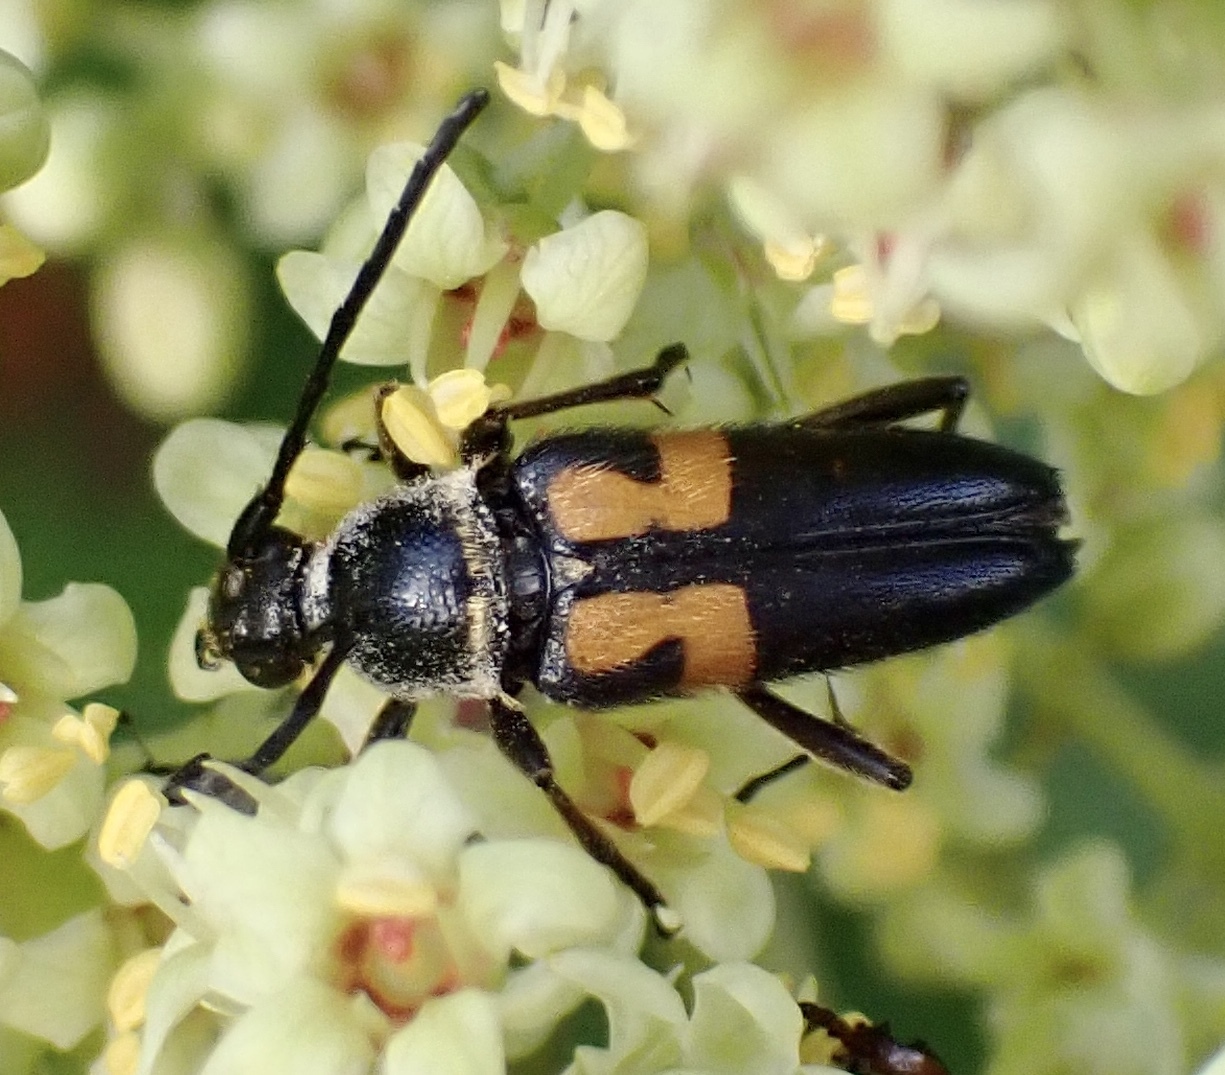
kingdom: Animalia
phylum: Arthropoda
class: Insecta
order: Coleoptera
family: Cerambycidae
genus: Typocerus
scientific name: Typocerus lunulatus
